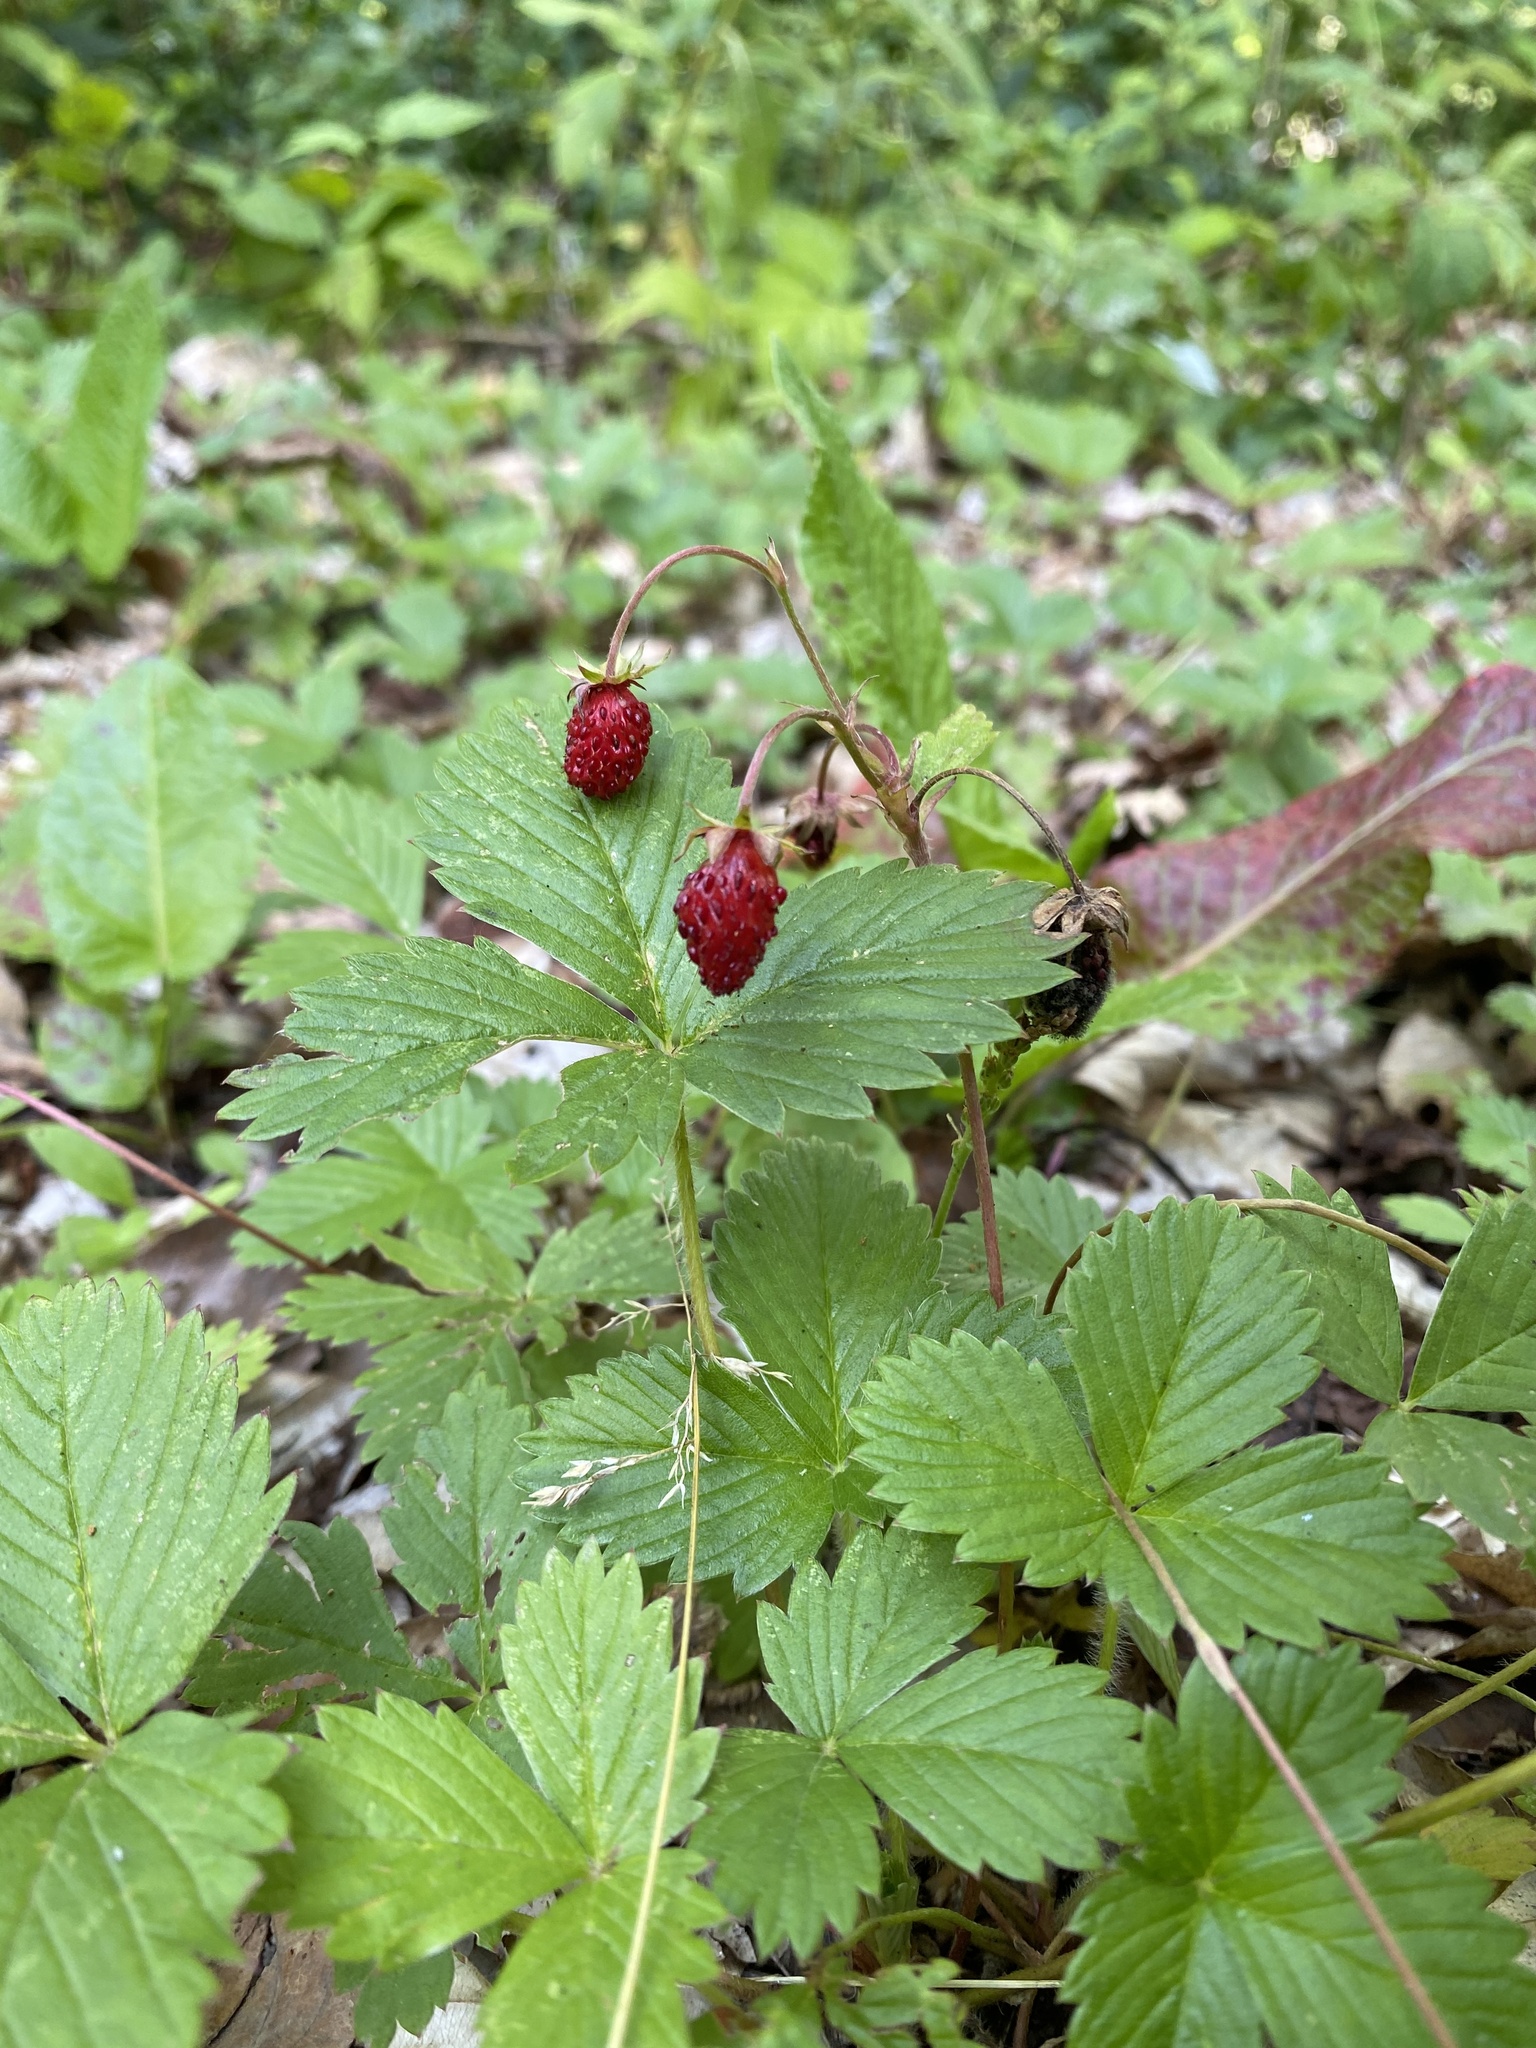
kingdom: Plantae
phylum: Tracheophyta
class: Magnoliopsida
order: Rosales
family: Rosaceae
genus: Fragaria
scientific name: Fragaria vesca
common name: Wild strawberry
